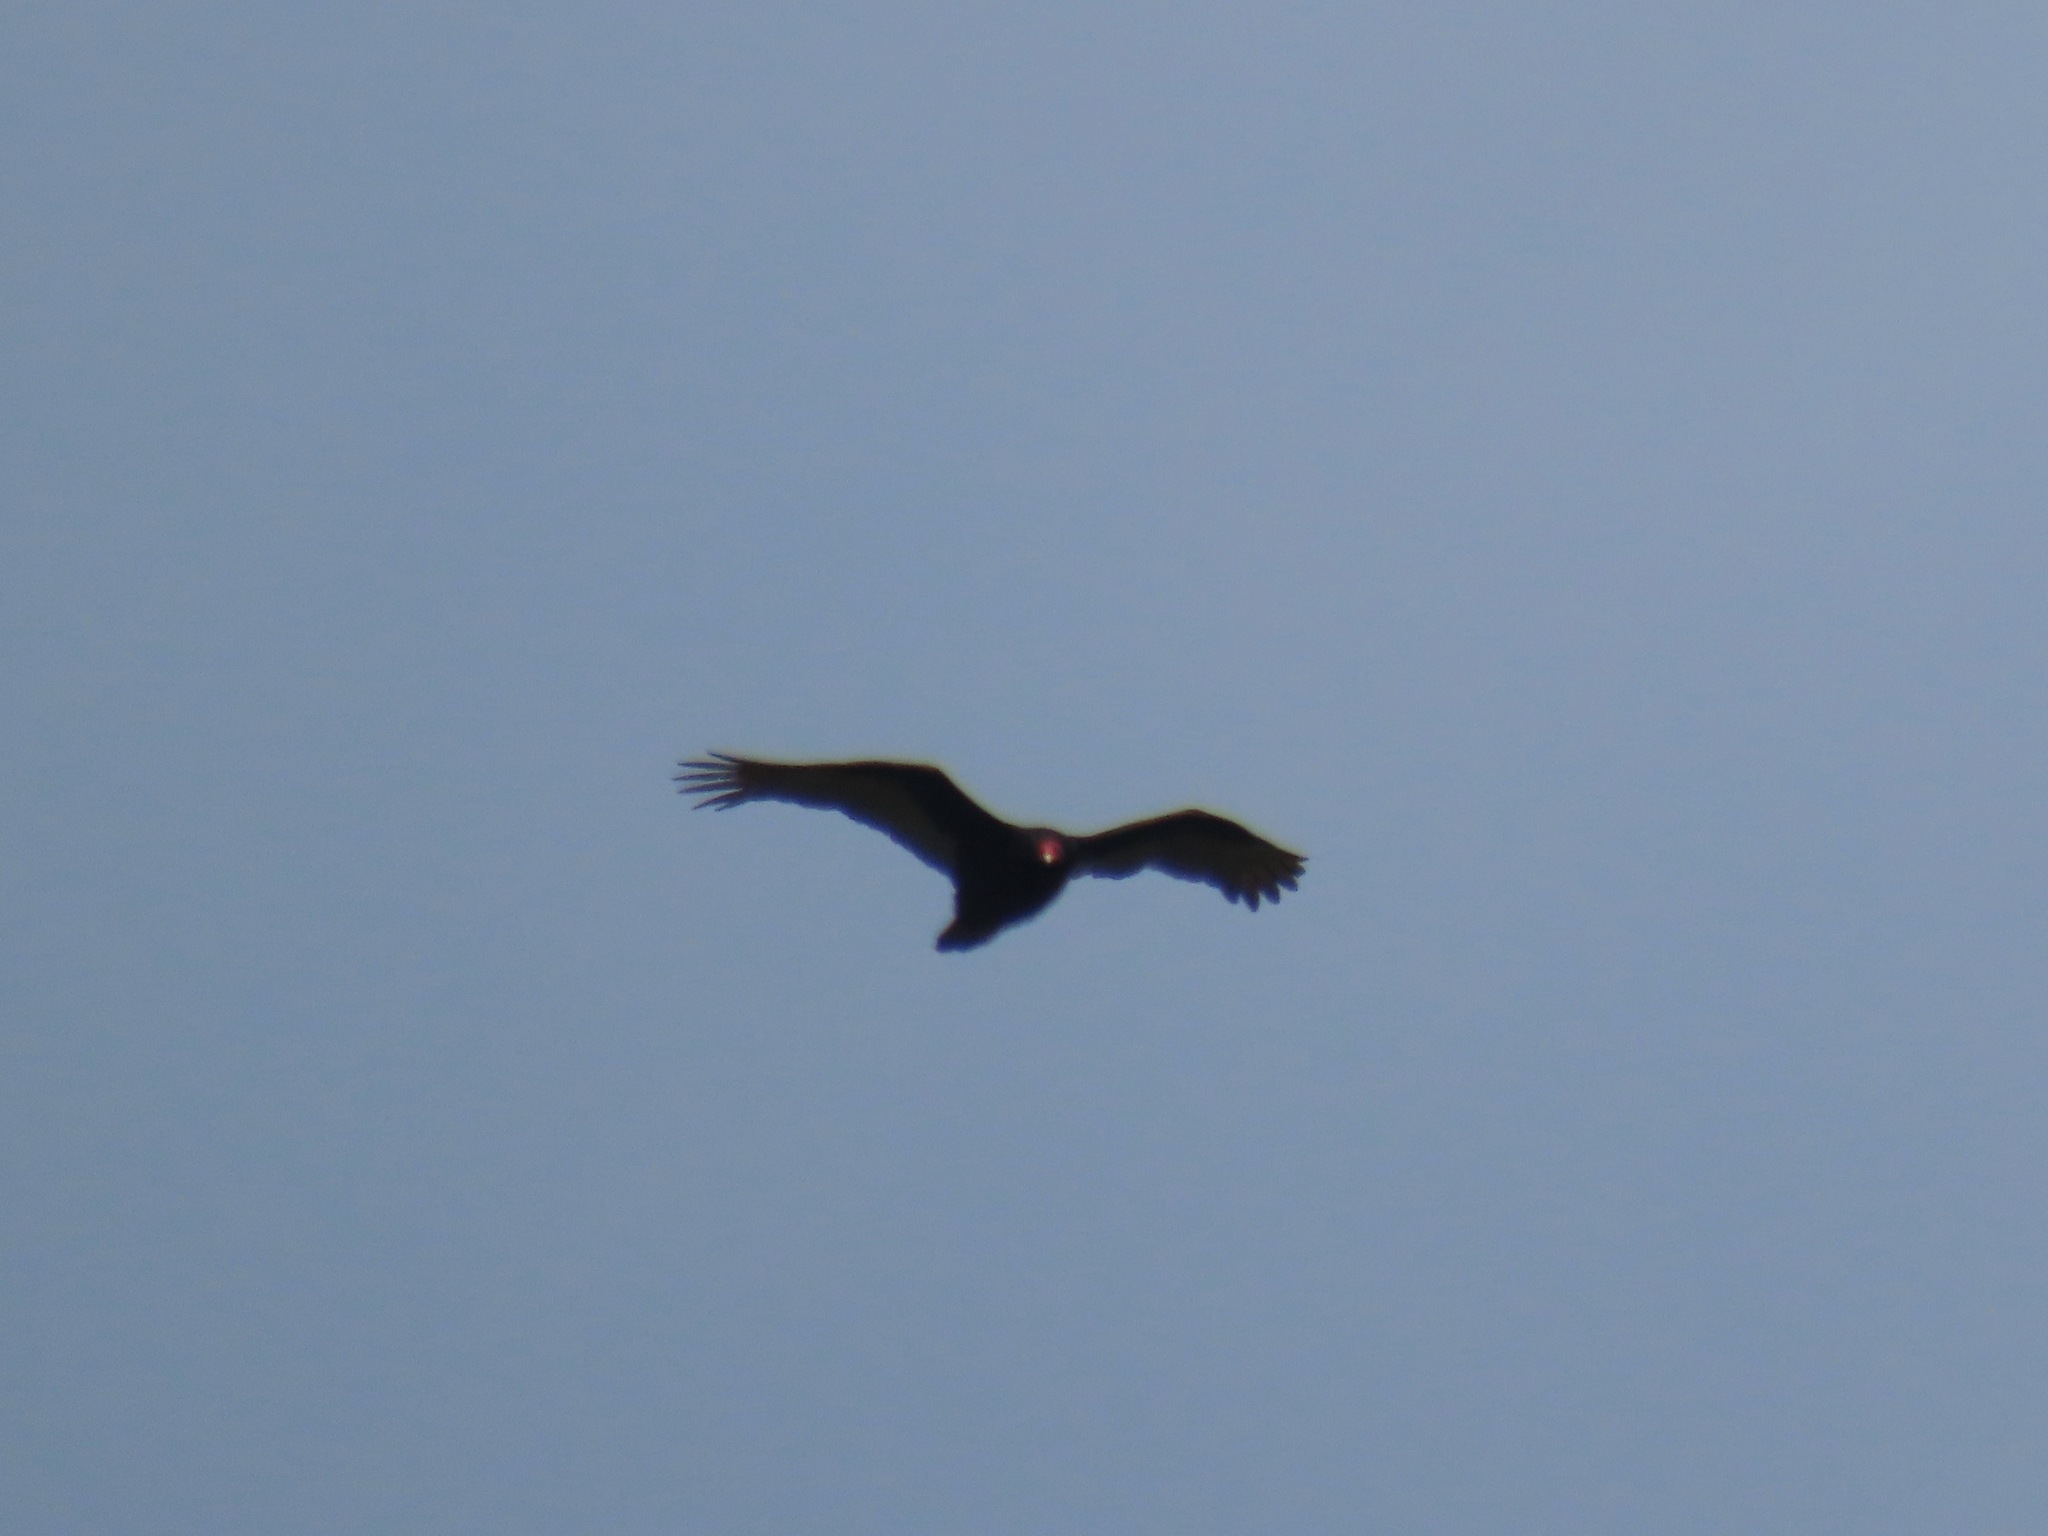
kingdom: Animalia
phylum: Chordata
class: Aves
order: Accipitriformes
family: Cathartidae
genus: Cathartes
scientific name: Cathartes aura
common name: Turkey vulture
